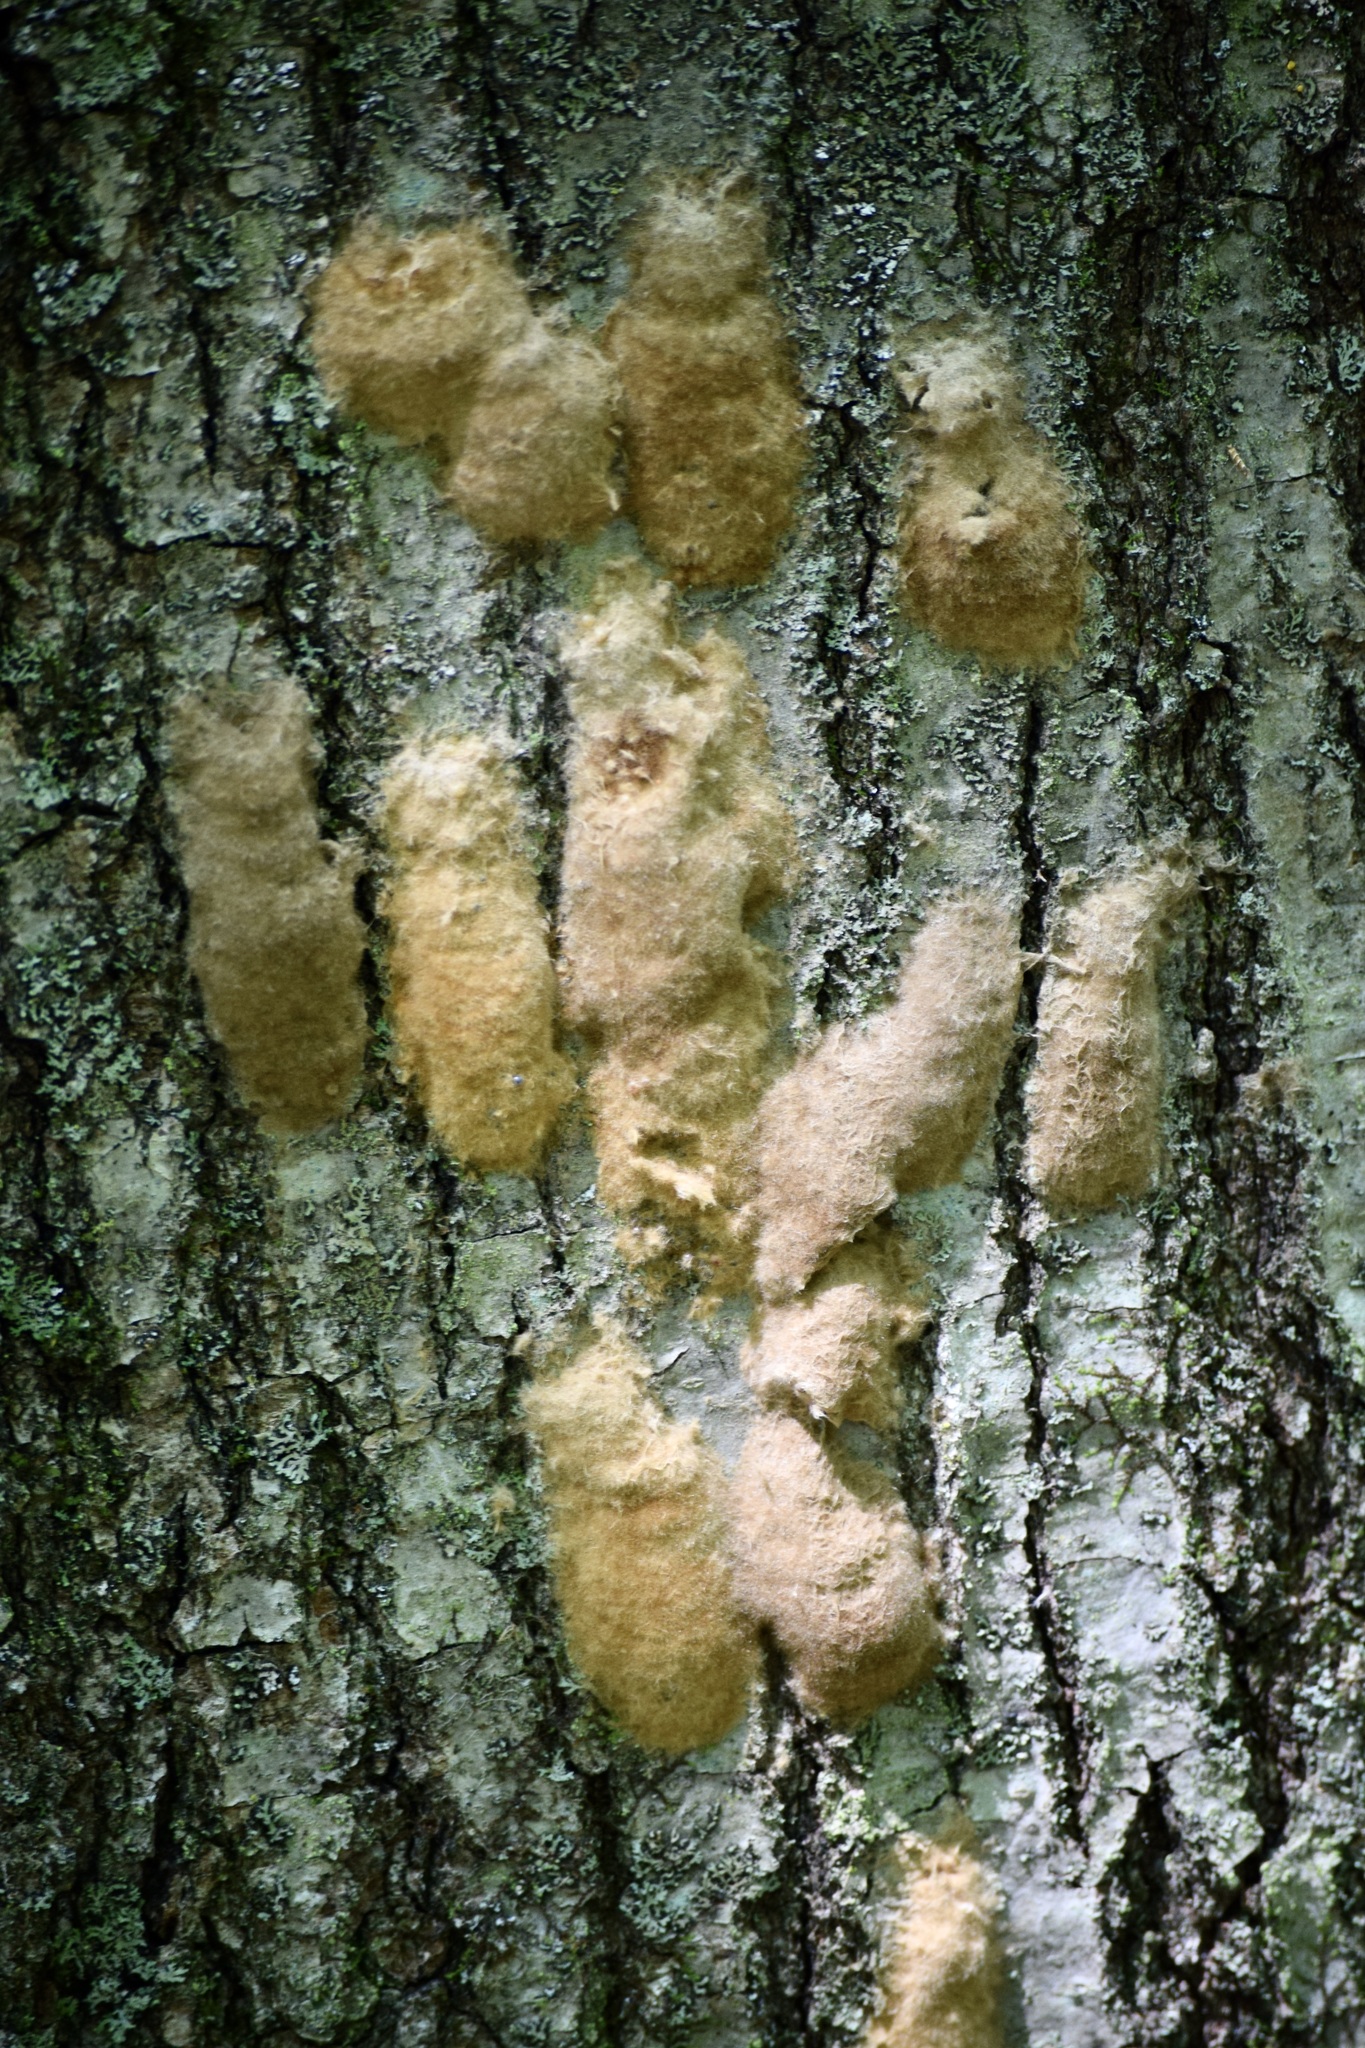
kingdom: Animalia
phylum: Arthropoda
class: Insecta
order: Lepidoptera
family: Erebidae
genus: Lymantria
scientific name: Lymantria dispar
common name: Gypsy moth
